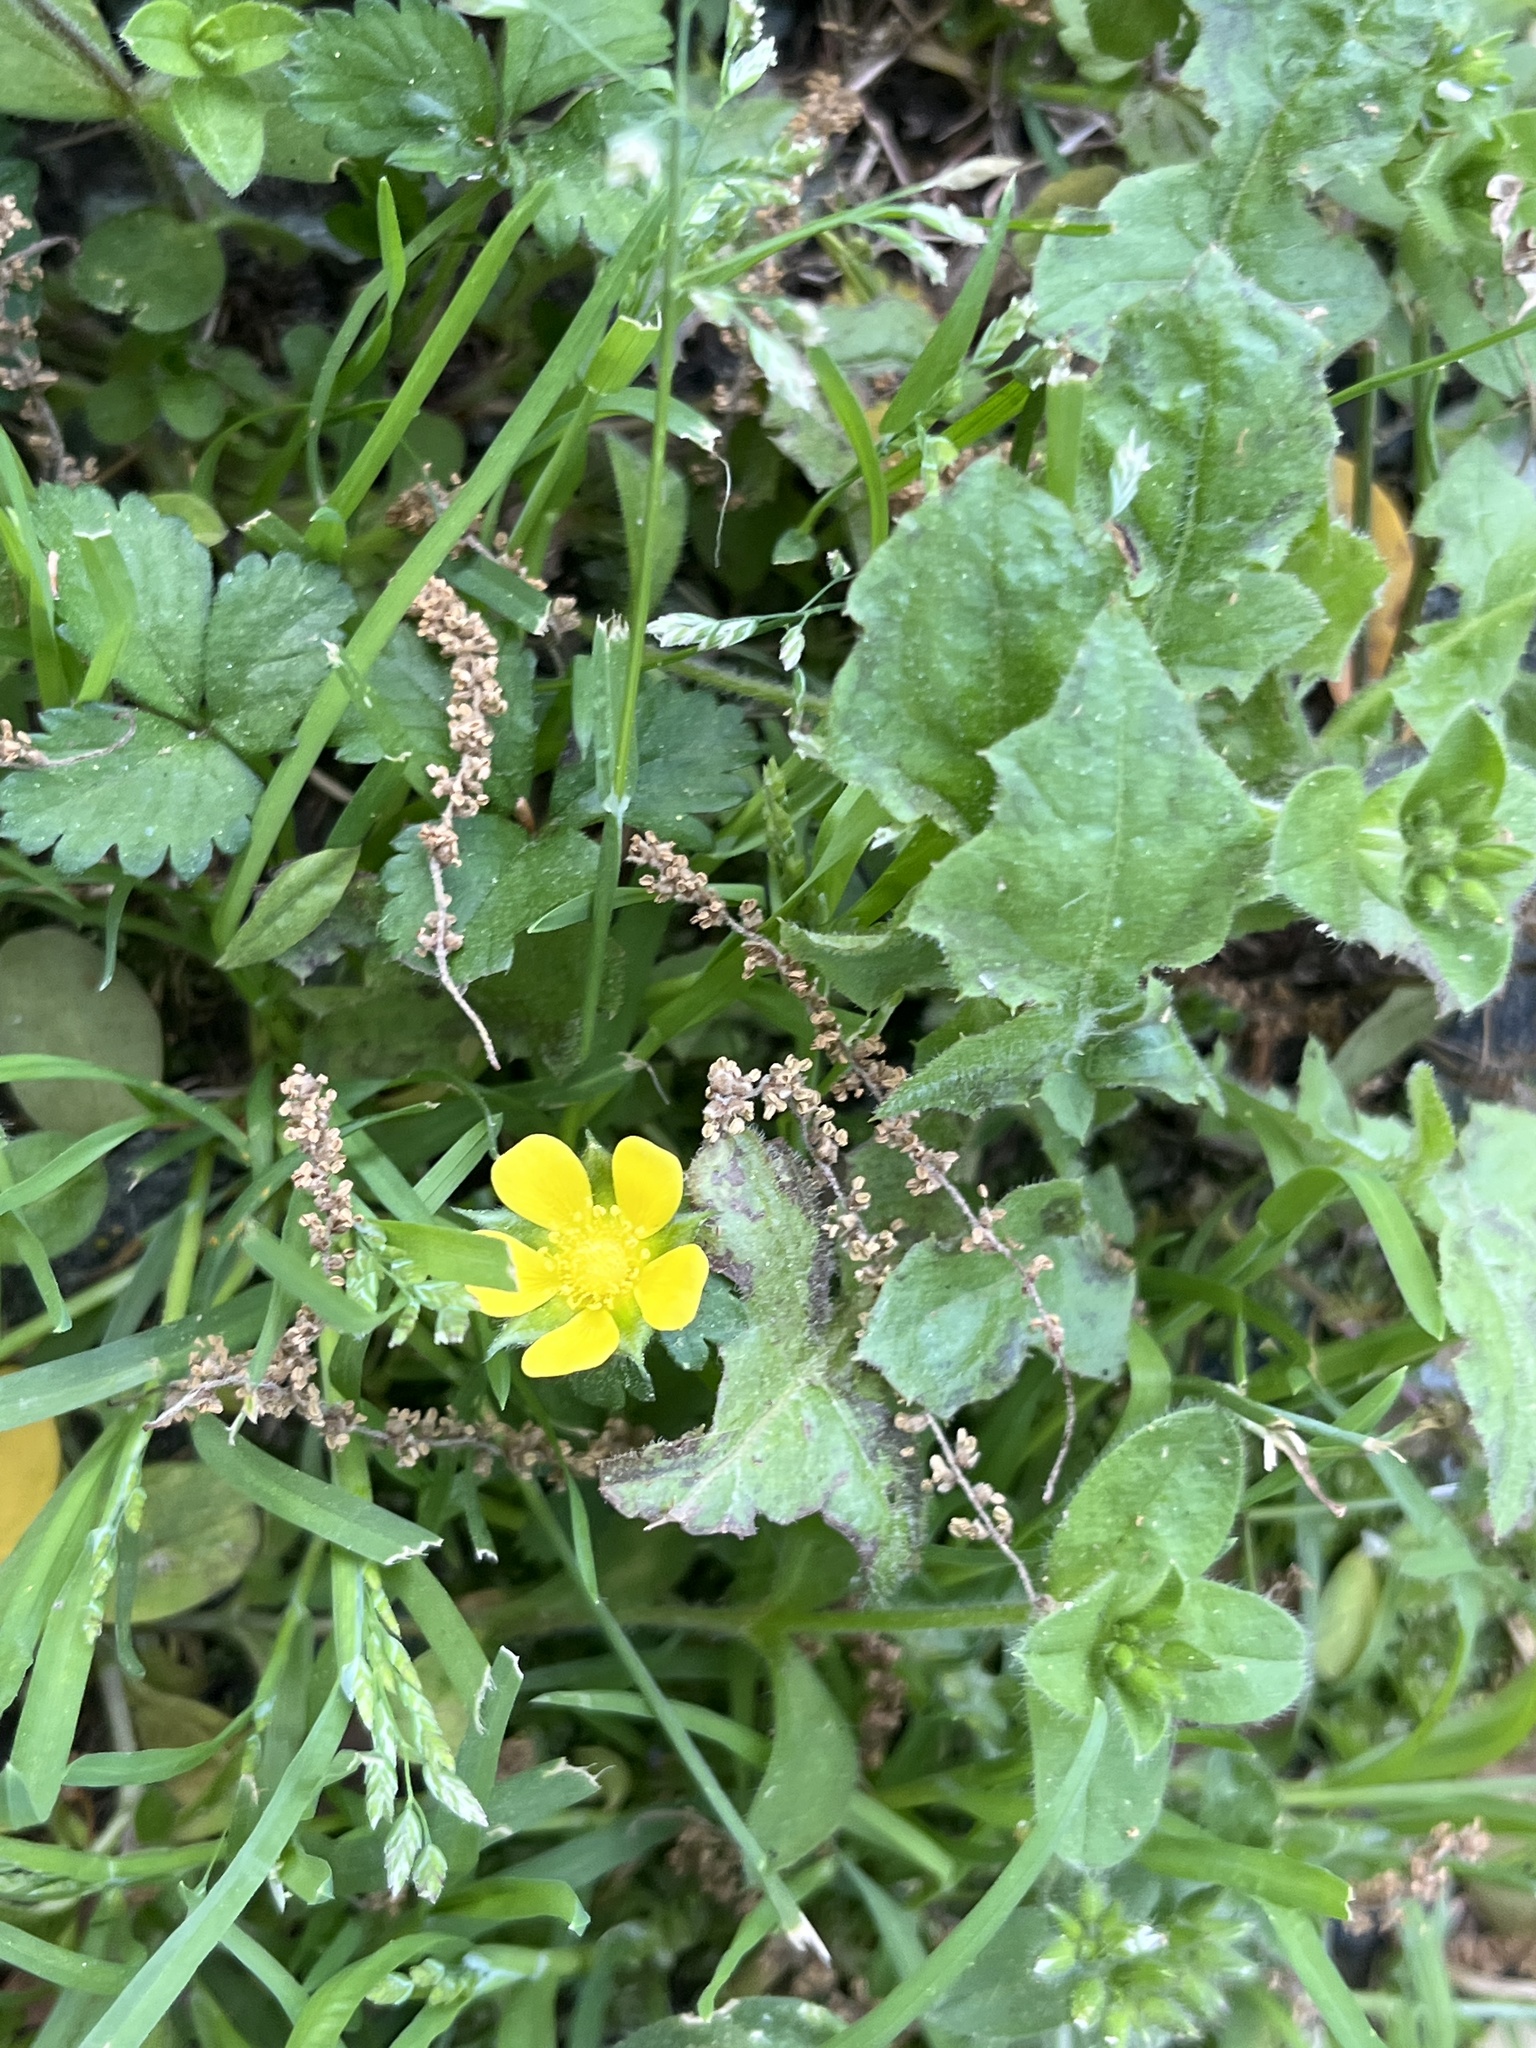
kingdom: Plantae
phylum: Tracheophyta
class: Magnoliopsida
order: Rosales
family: Rosaceae
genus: Potentilla
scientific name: Potentilla indica
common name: Yellow-flowered strawberry
